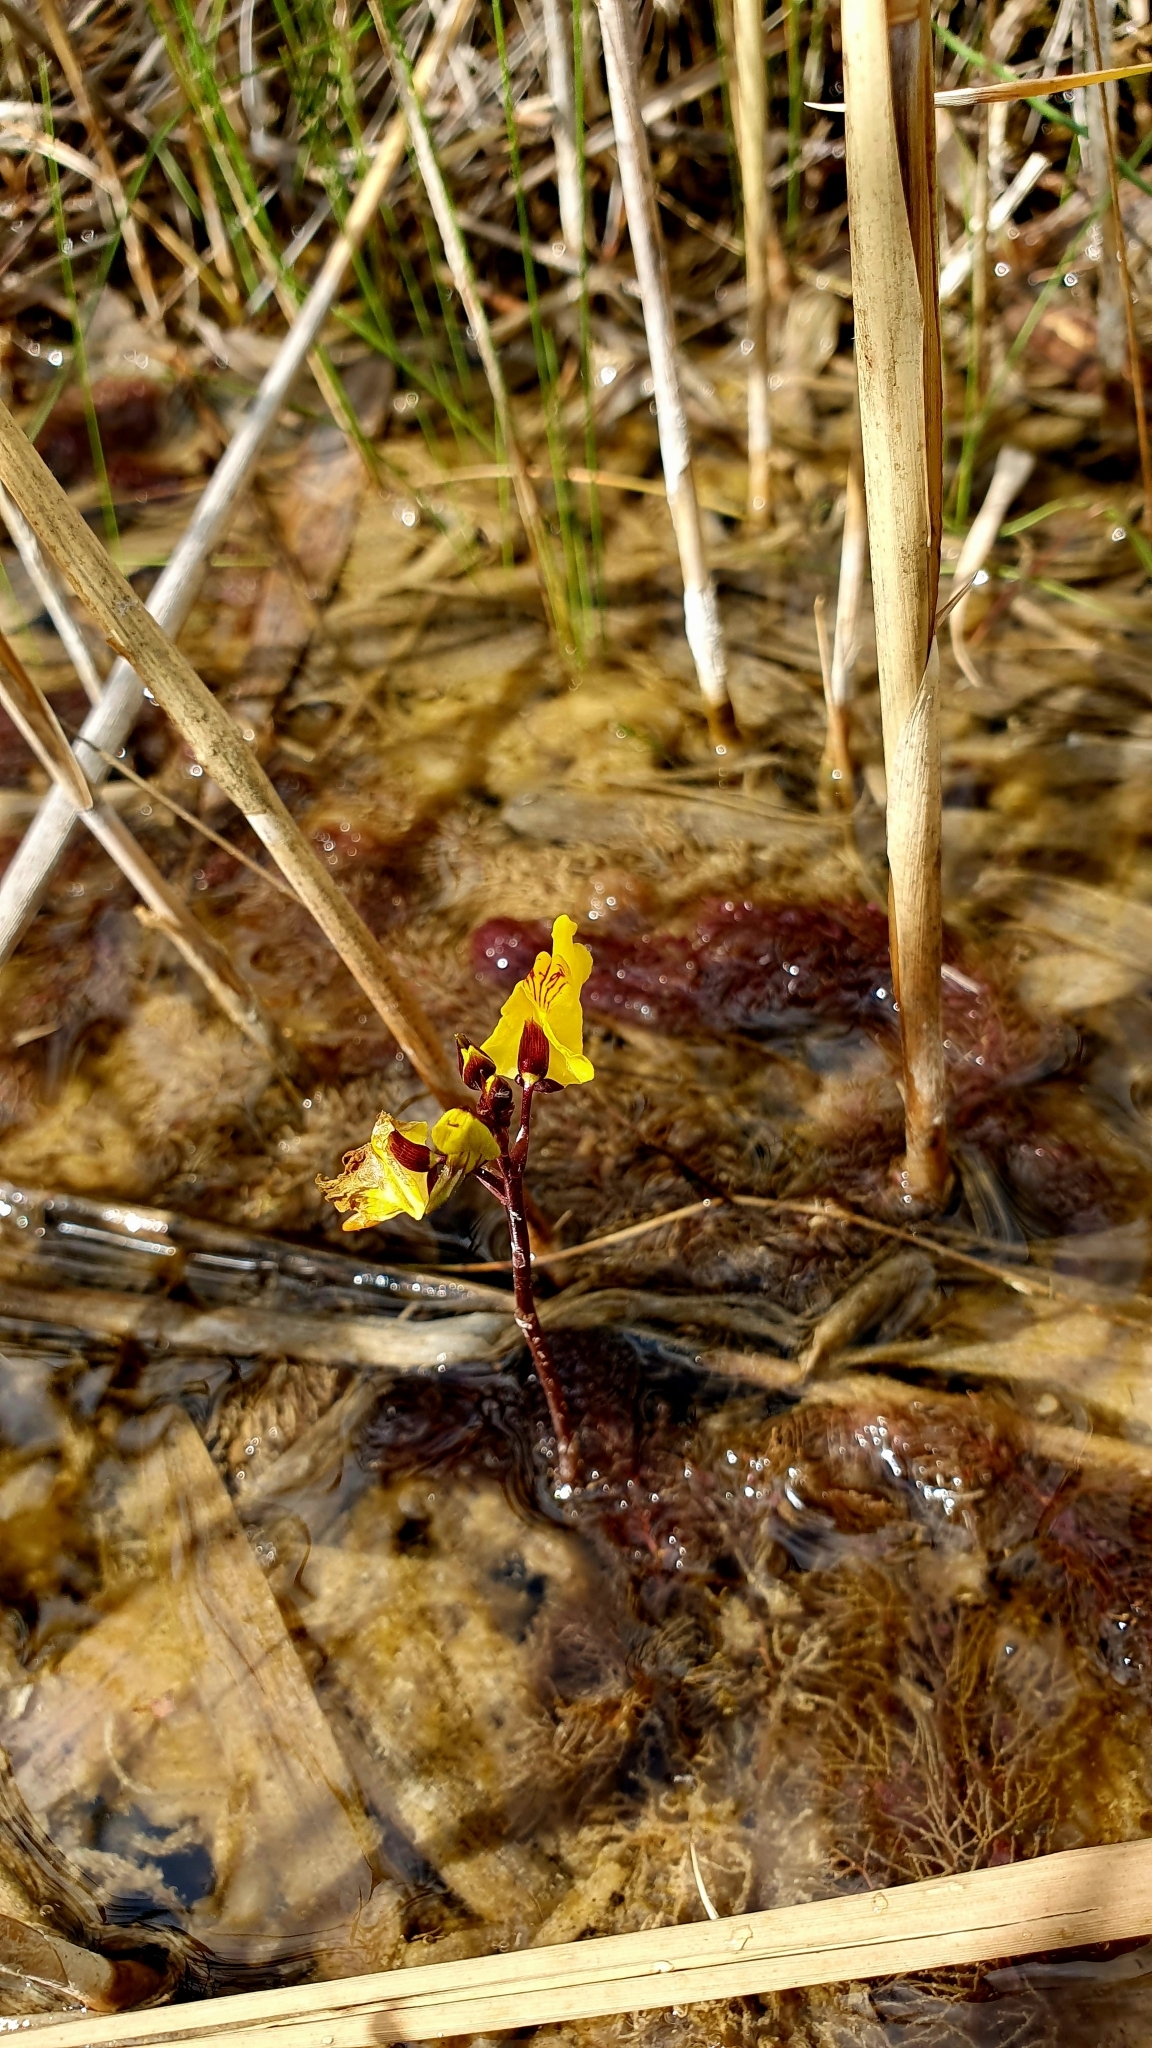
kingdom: Plantae
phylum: Tracheophyta
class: Magnoliopsida
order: Lamiales
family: Lentibulariaceae
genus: Utricularia
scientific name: Utricularia vulgaris
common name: Greater bladderwort
